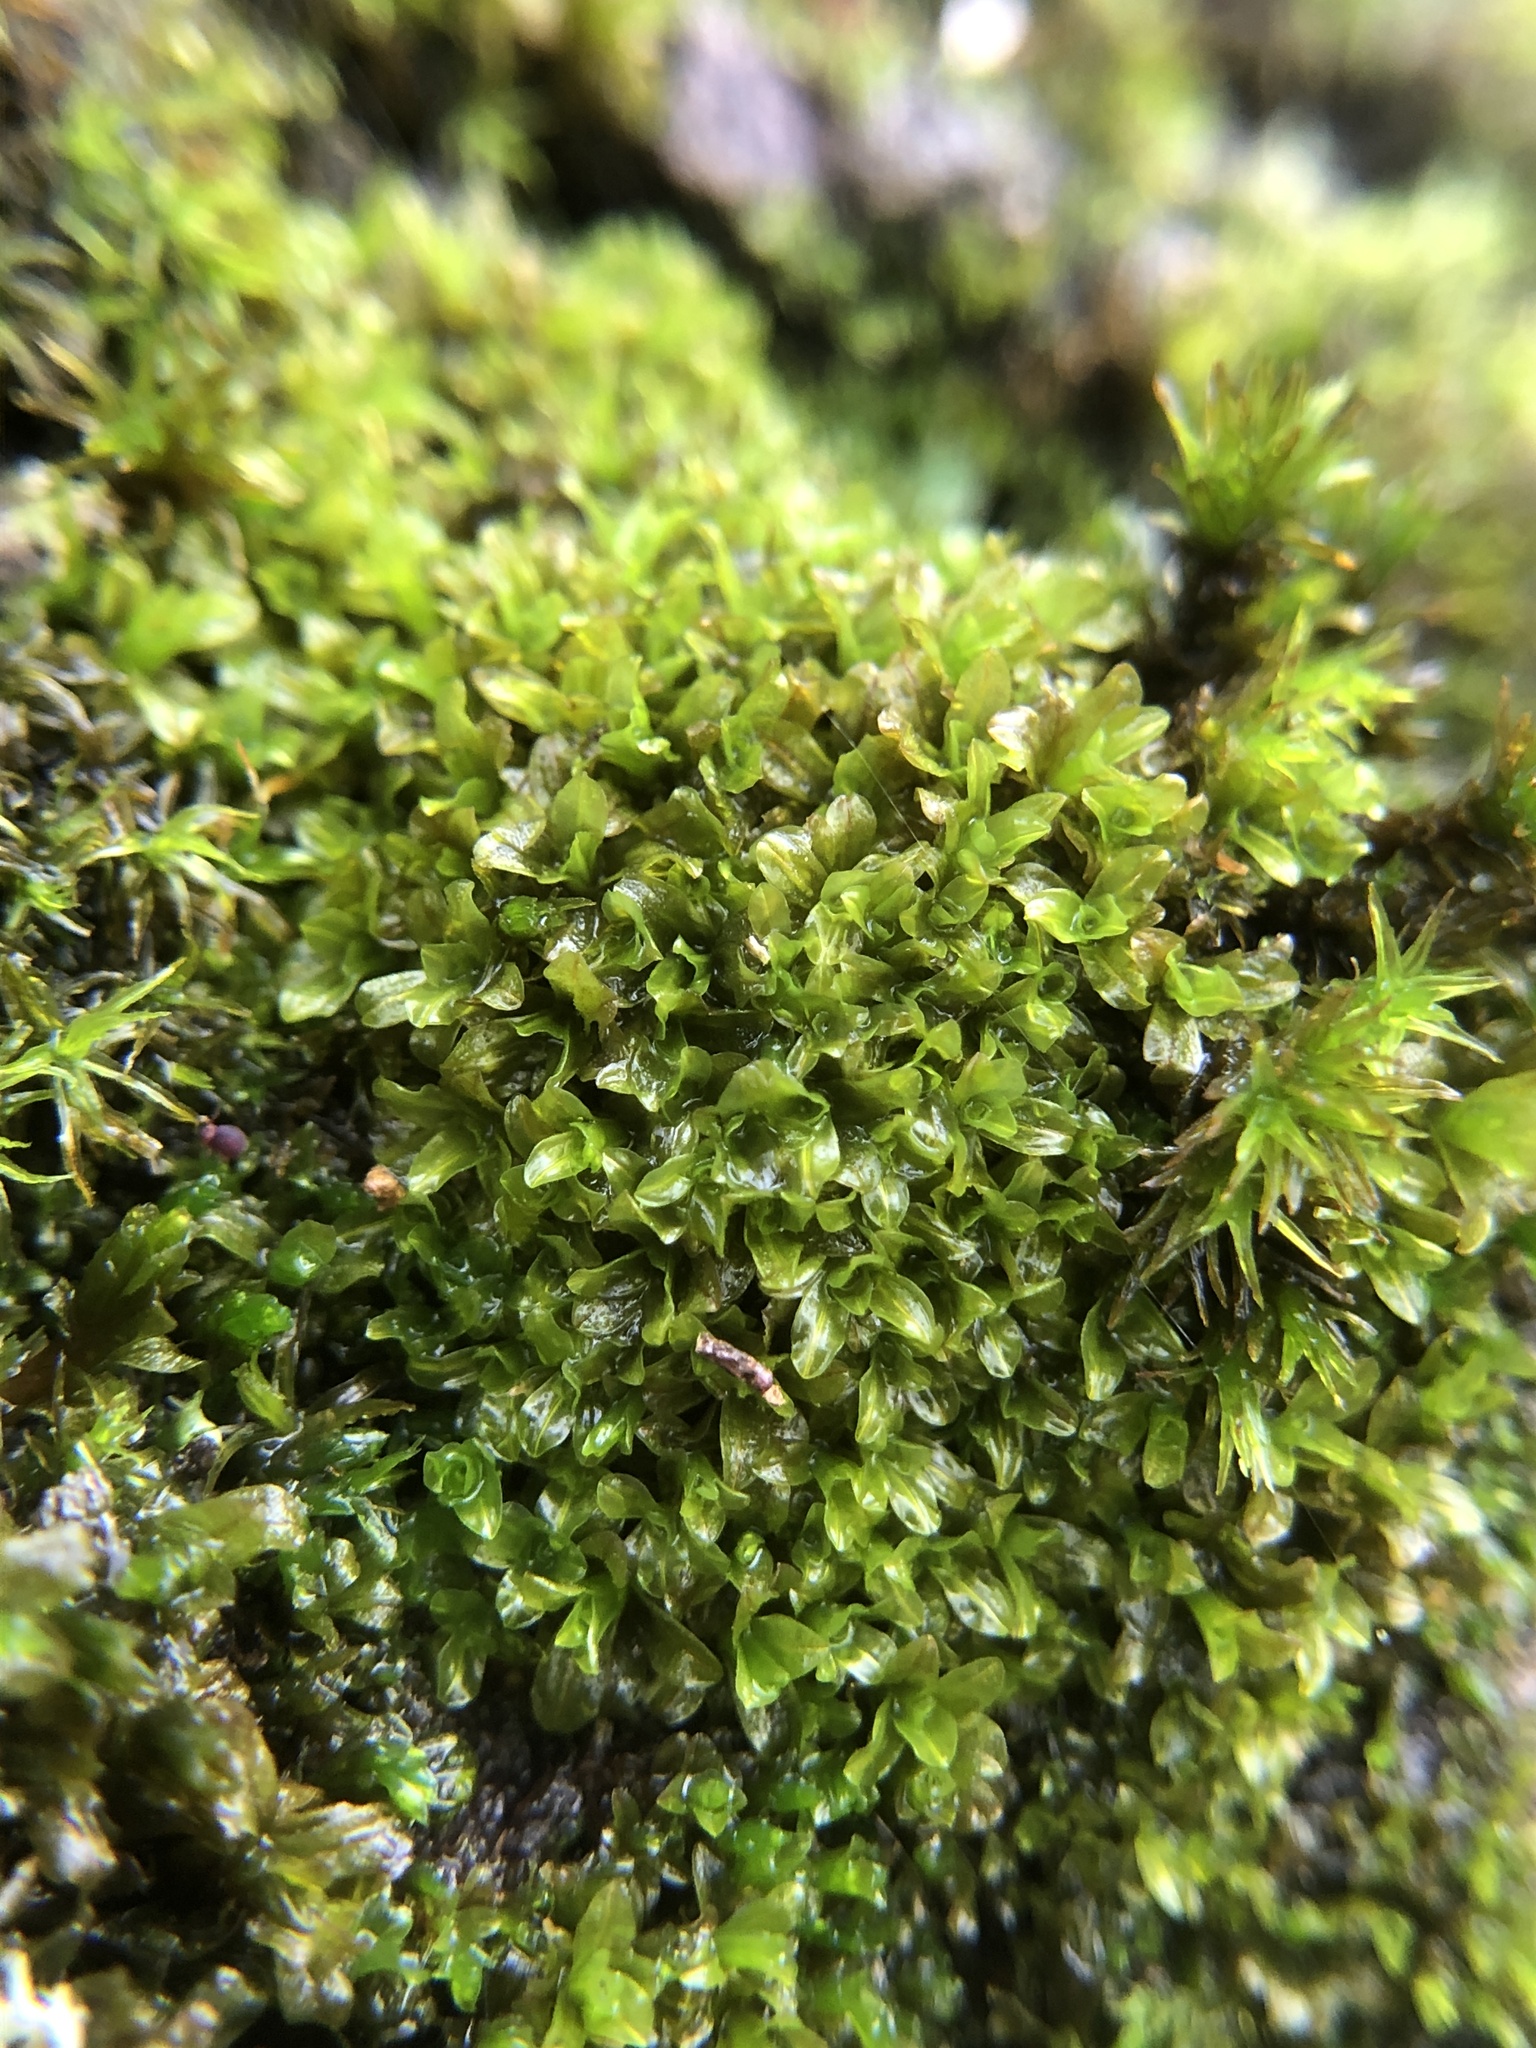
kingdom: Plantae
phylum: Bryophyta
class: Bryopsida
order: Pottiales
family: Pottiaceae
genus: Syntrichia
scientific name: Syntrichia latifolia
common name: Water screw-moss
